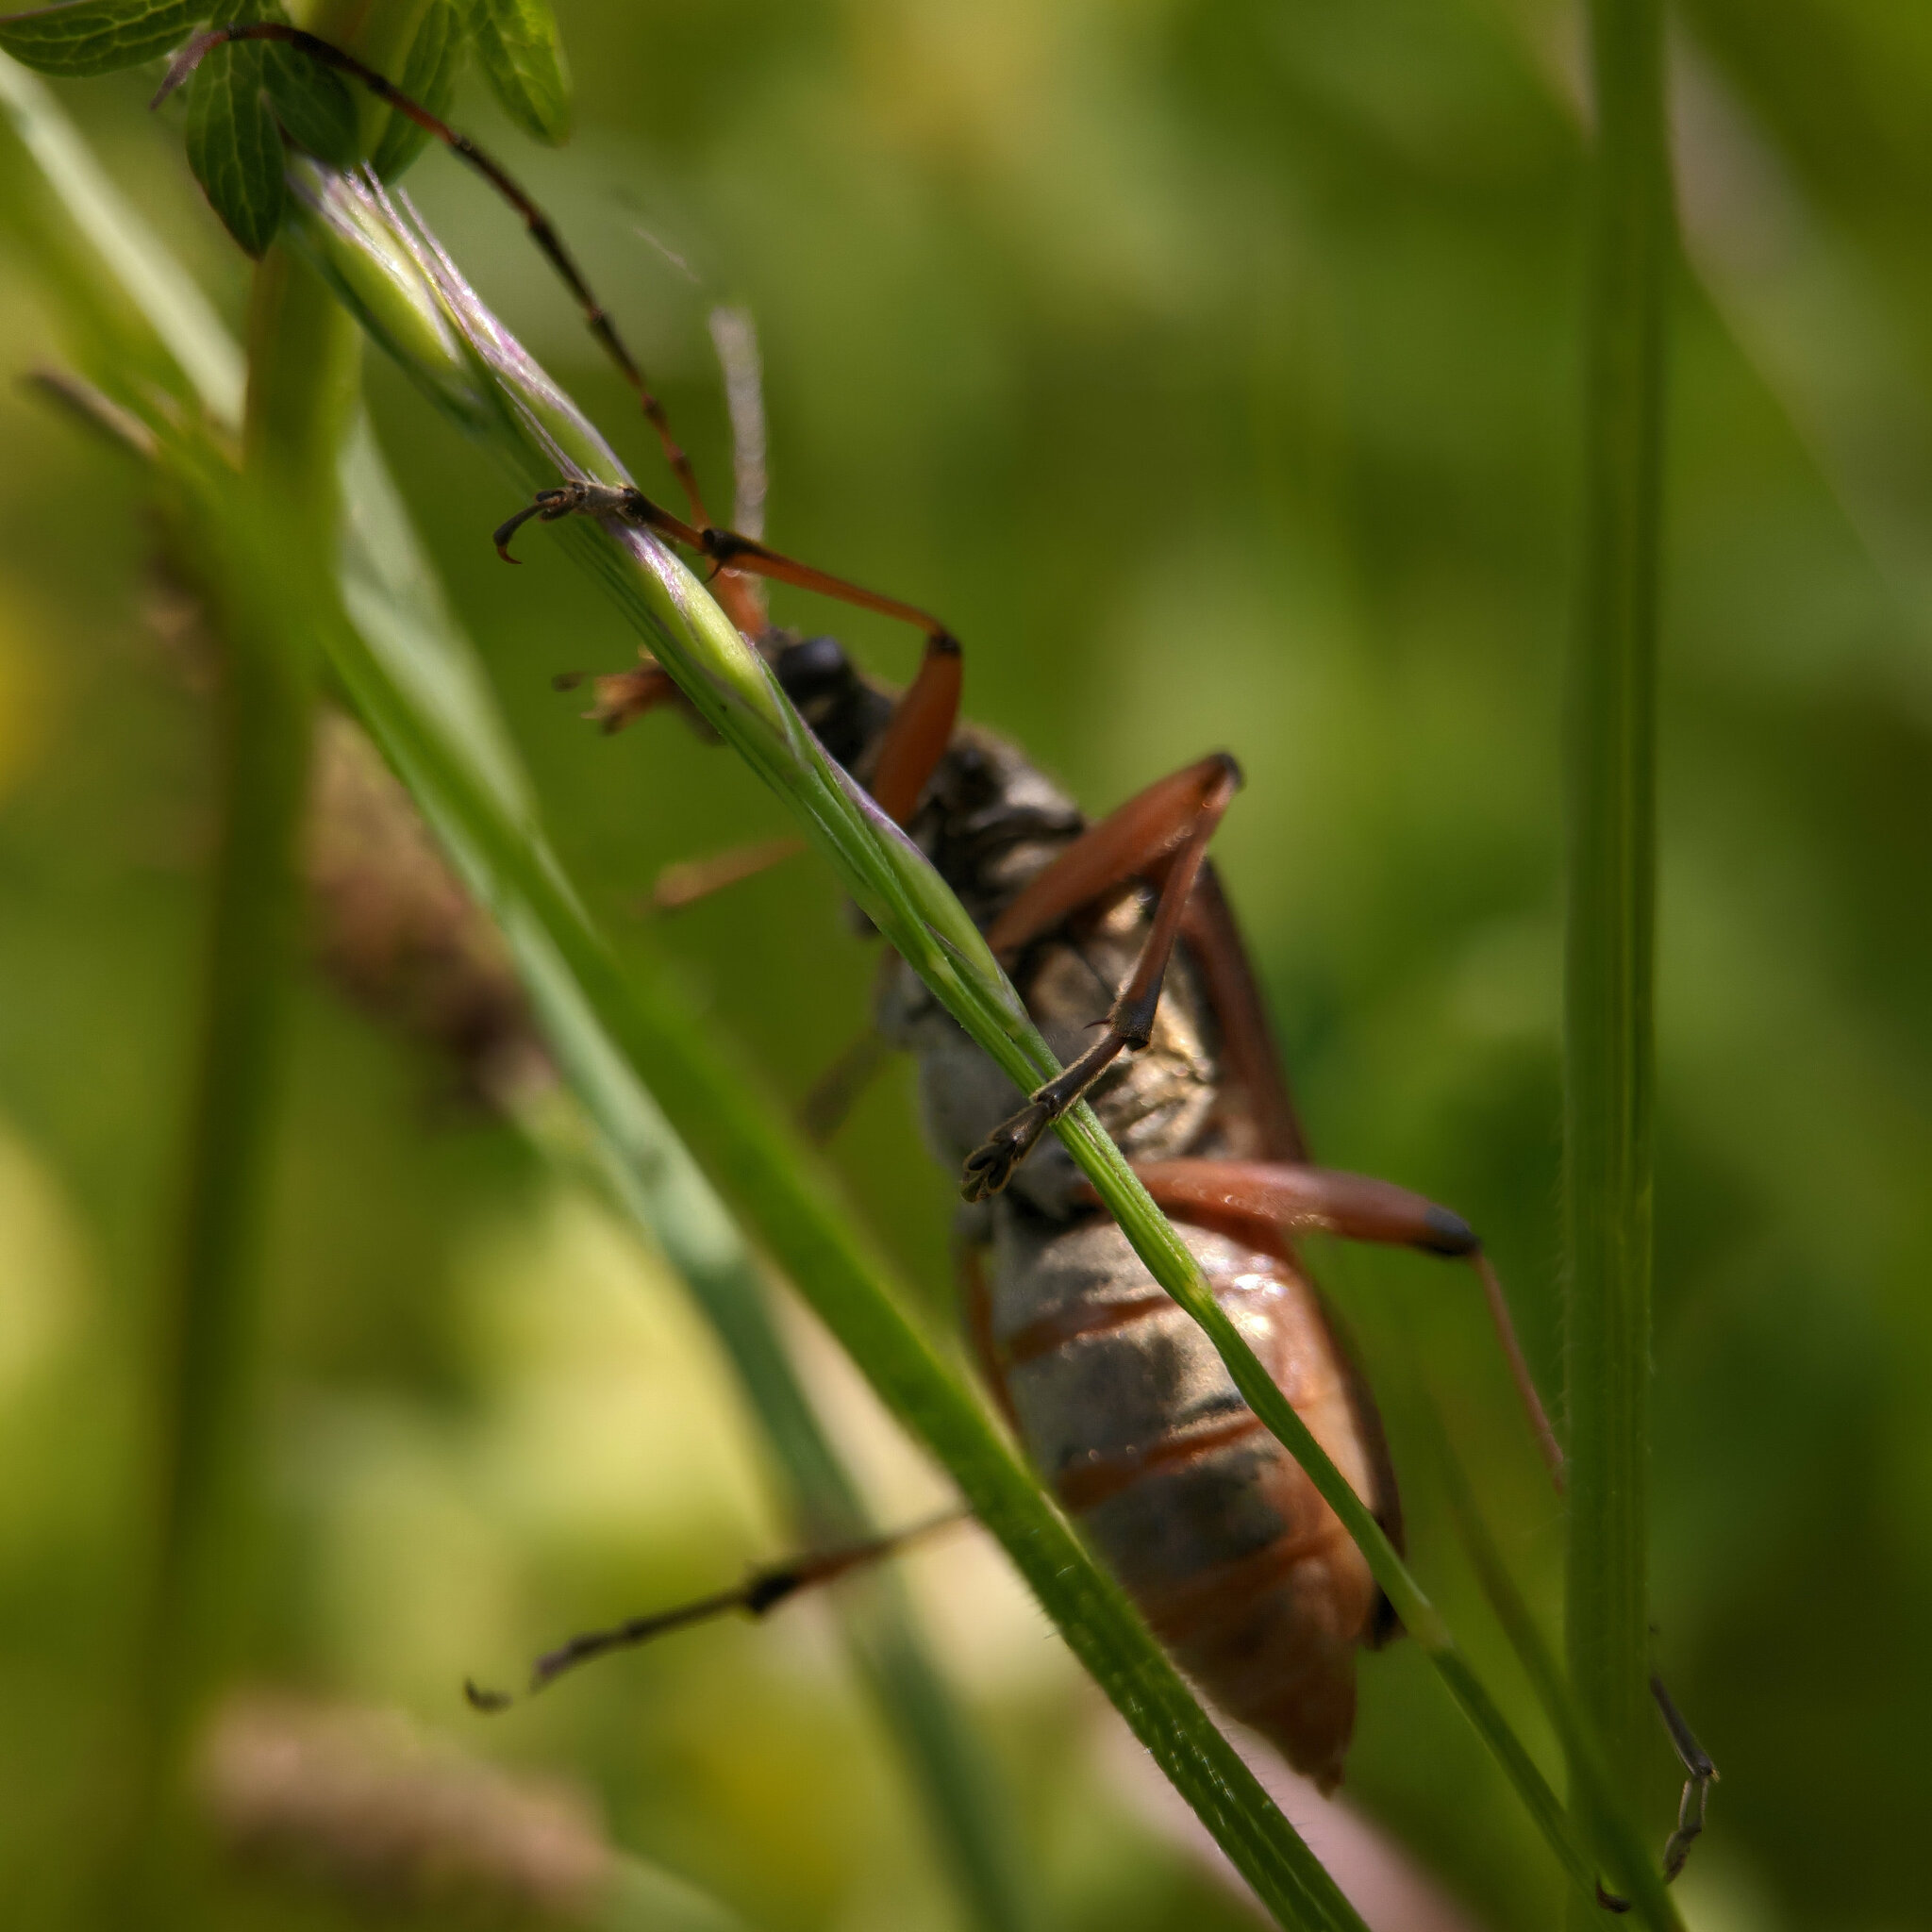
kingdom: Animalia
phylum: Arthropoda
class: Insecta
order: Coleoptera
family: Cerambycidae
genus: Stenocorus
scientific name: Stenocorus meridianus
